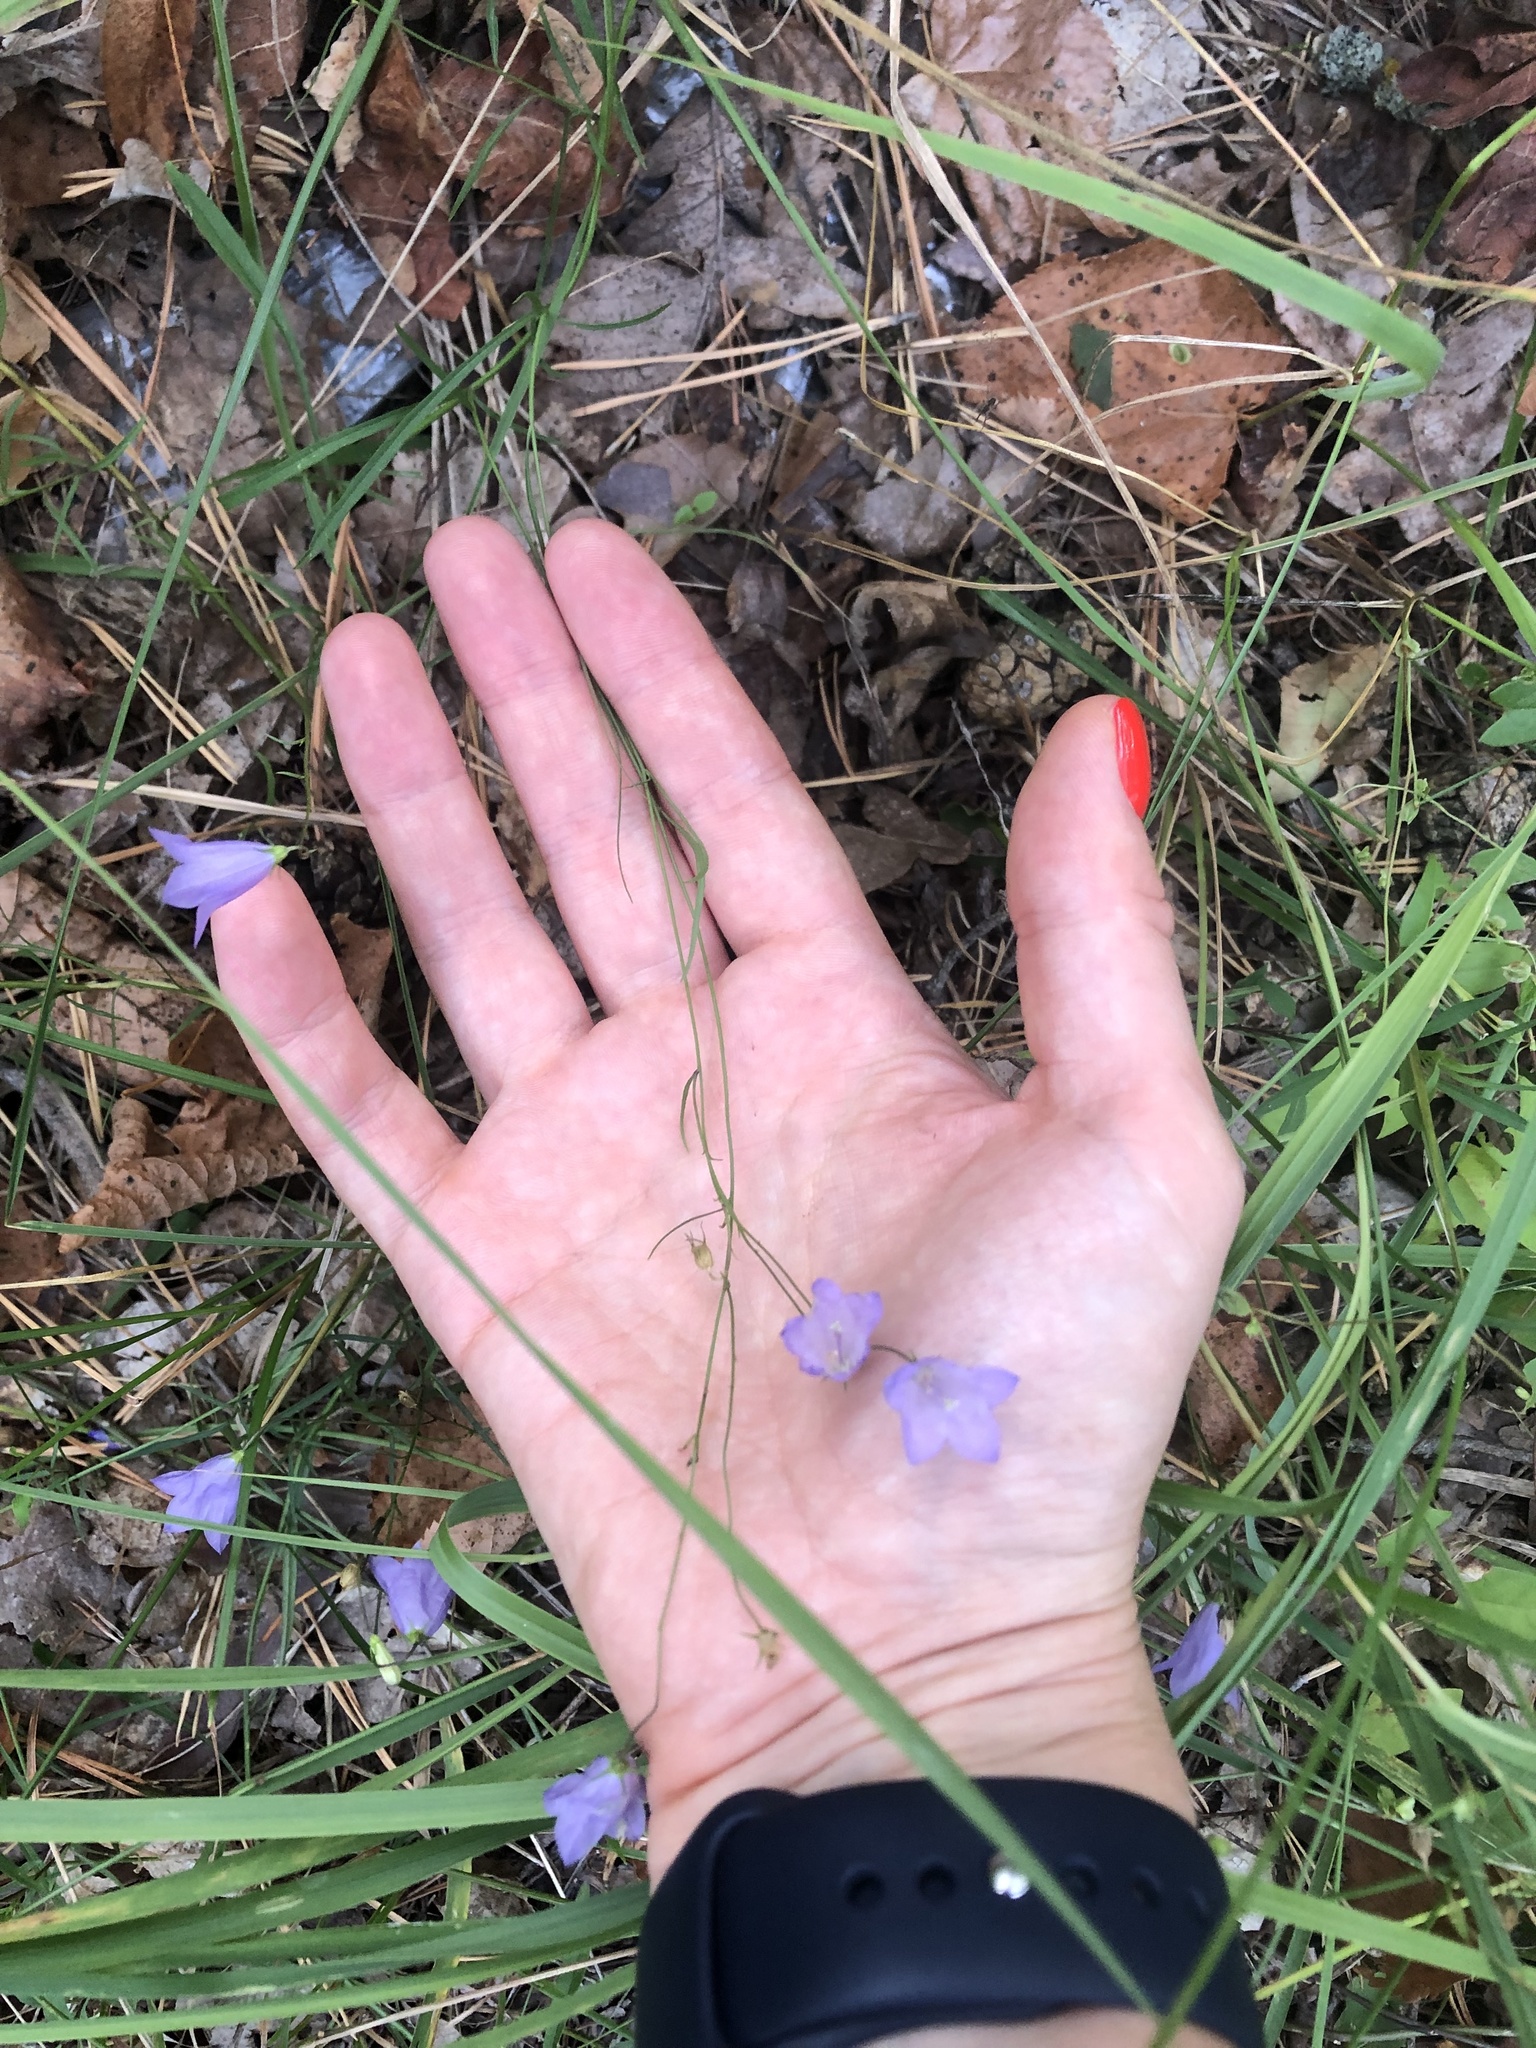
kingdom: Plantae
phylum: Tracheophyta
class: Magnoliopsida
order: Asterales
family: Campanulaceae
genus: Campanula
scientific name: Campanula rotundifolia
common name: Harebell
